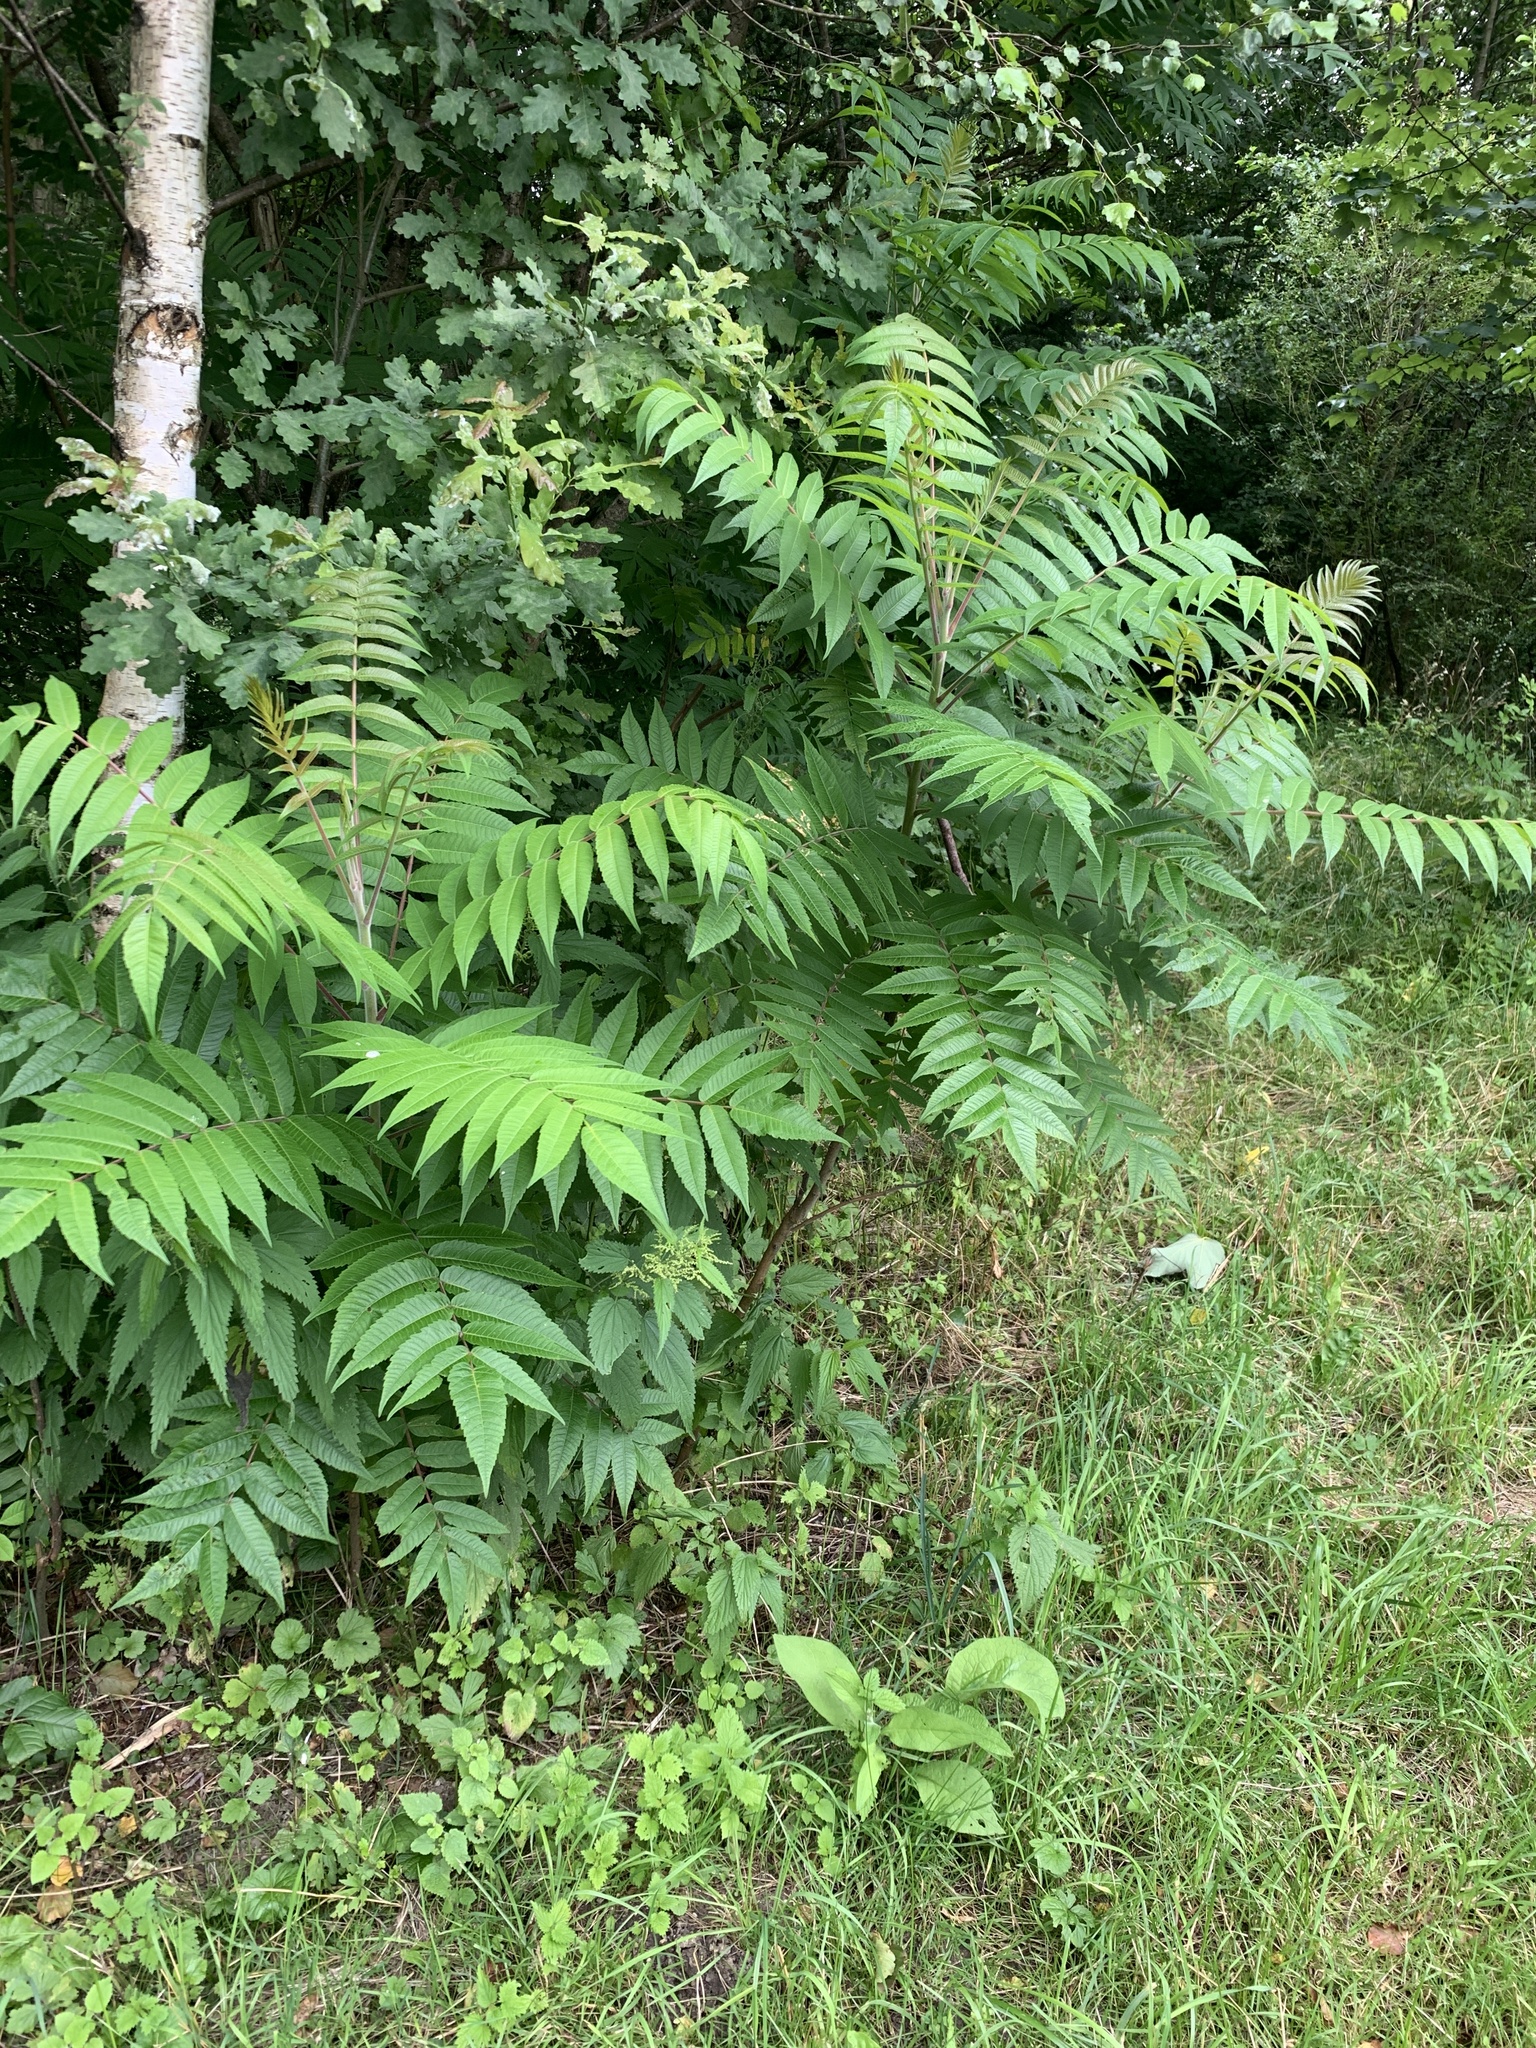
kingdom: Plantae
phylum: Tracheophyta
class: Magnoliopsida
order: Sapindales
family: Anacardiaceae
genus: Rhus
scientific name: Rhus typhina
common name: Staghorn sumac
